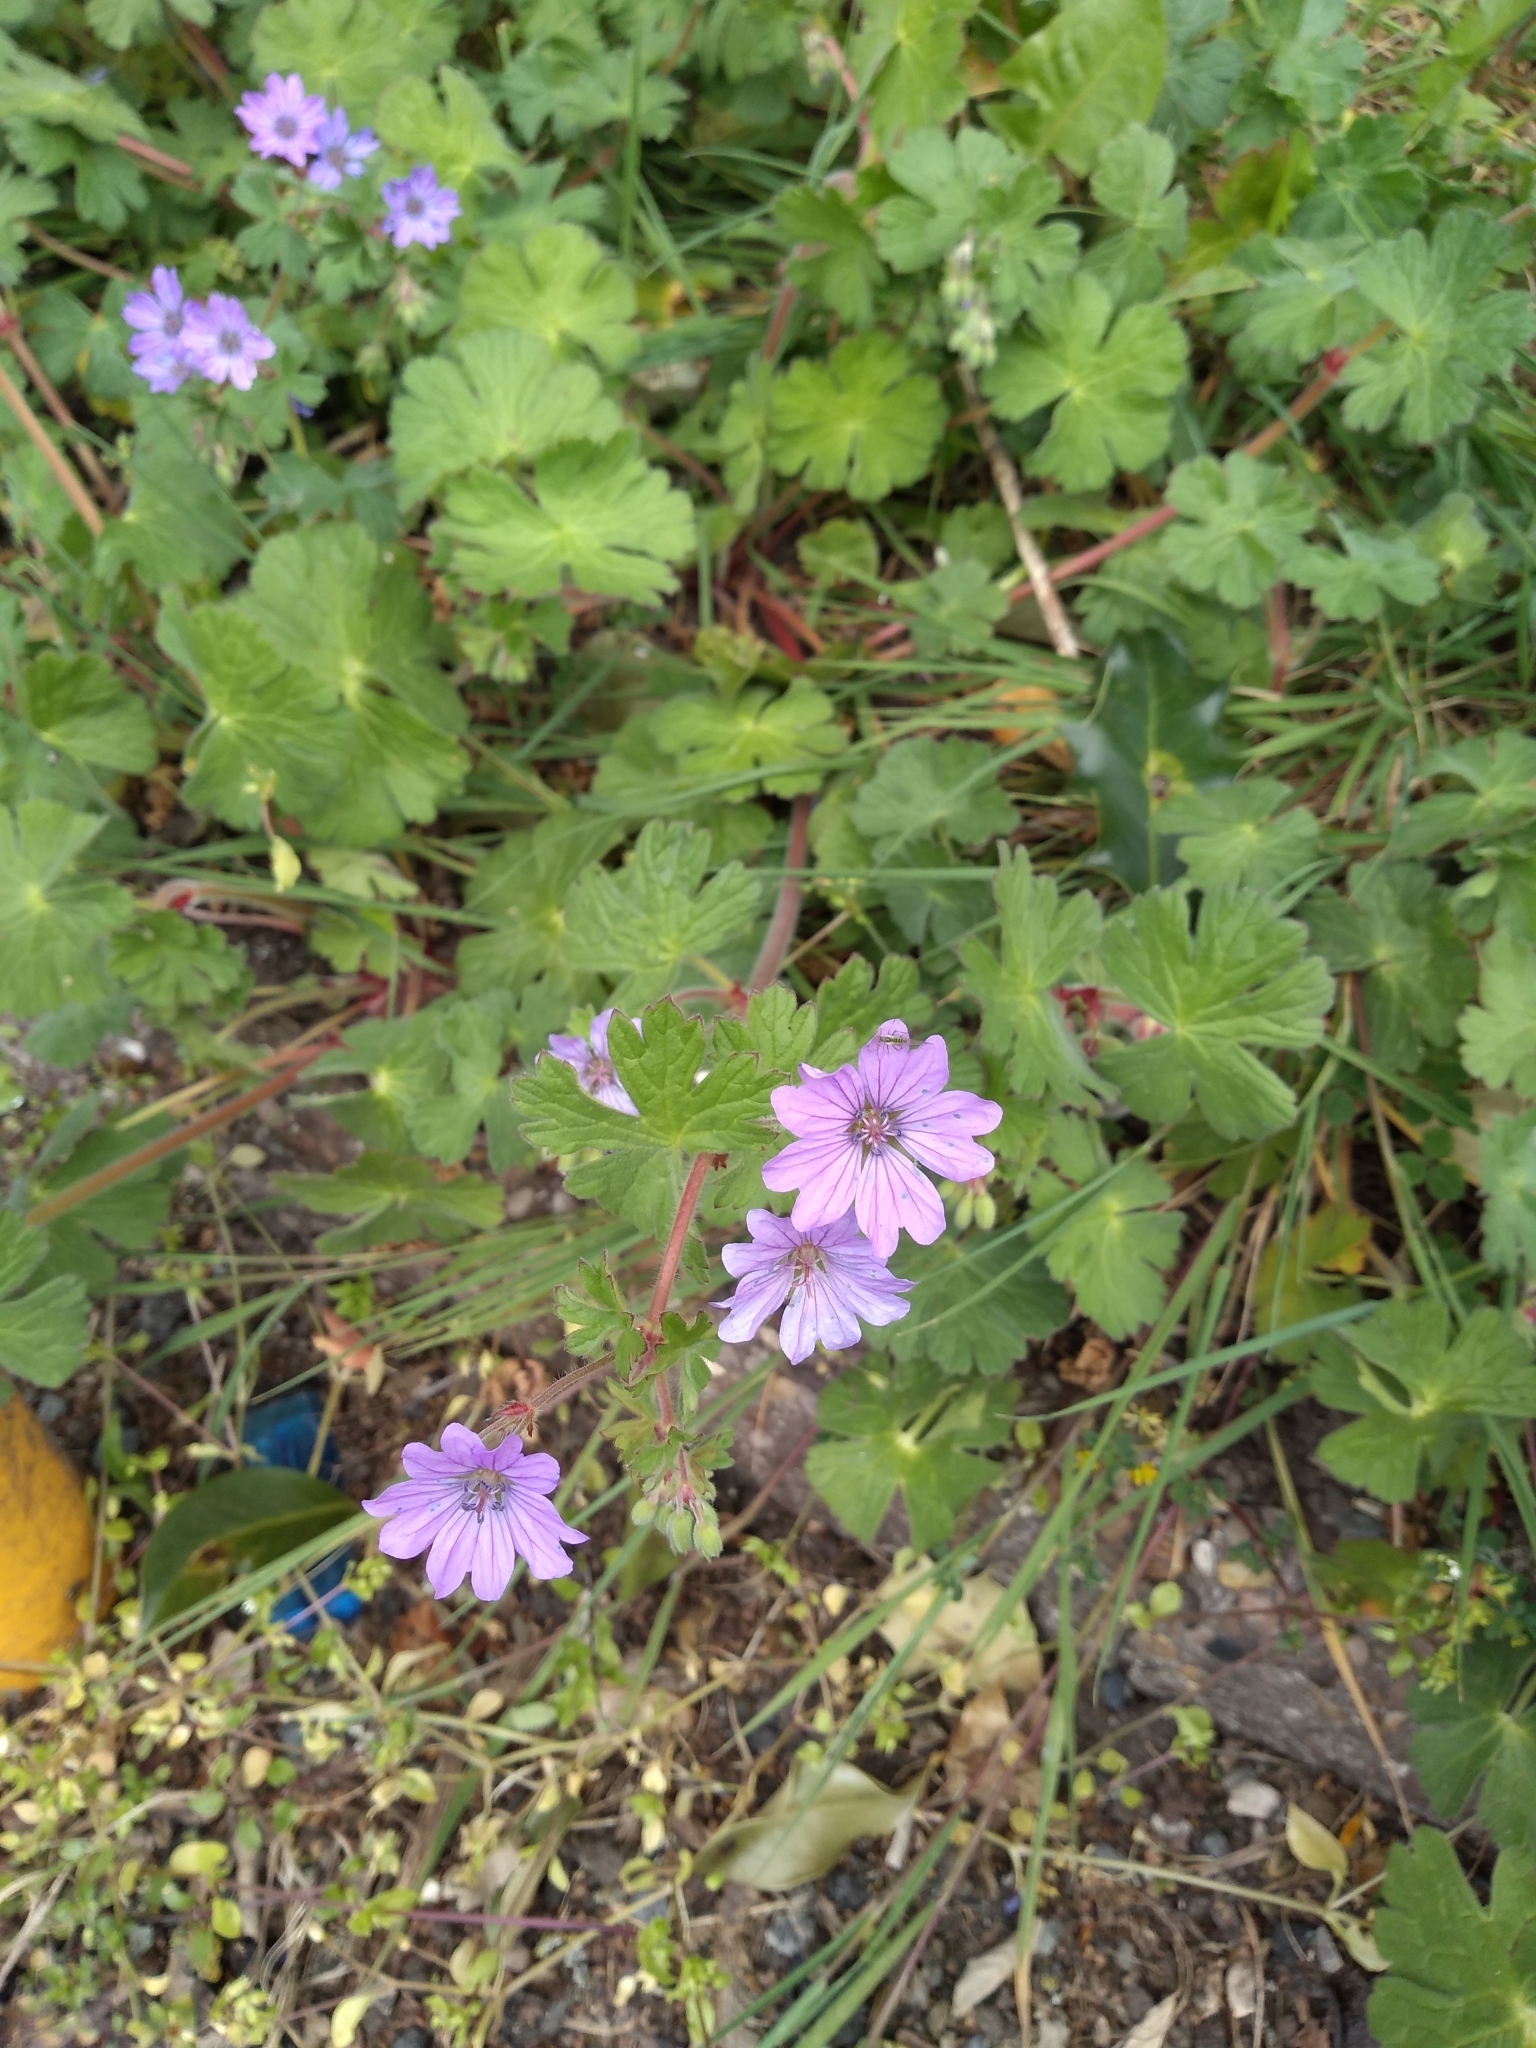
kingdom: Plantae
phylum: Tracheophyta
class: Magnoliopsida
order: Geraniales
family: Geraniaceae
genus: Geranium
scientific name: Geranium pyrenaicum
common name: Hedgerow crane's-bill
